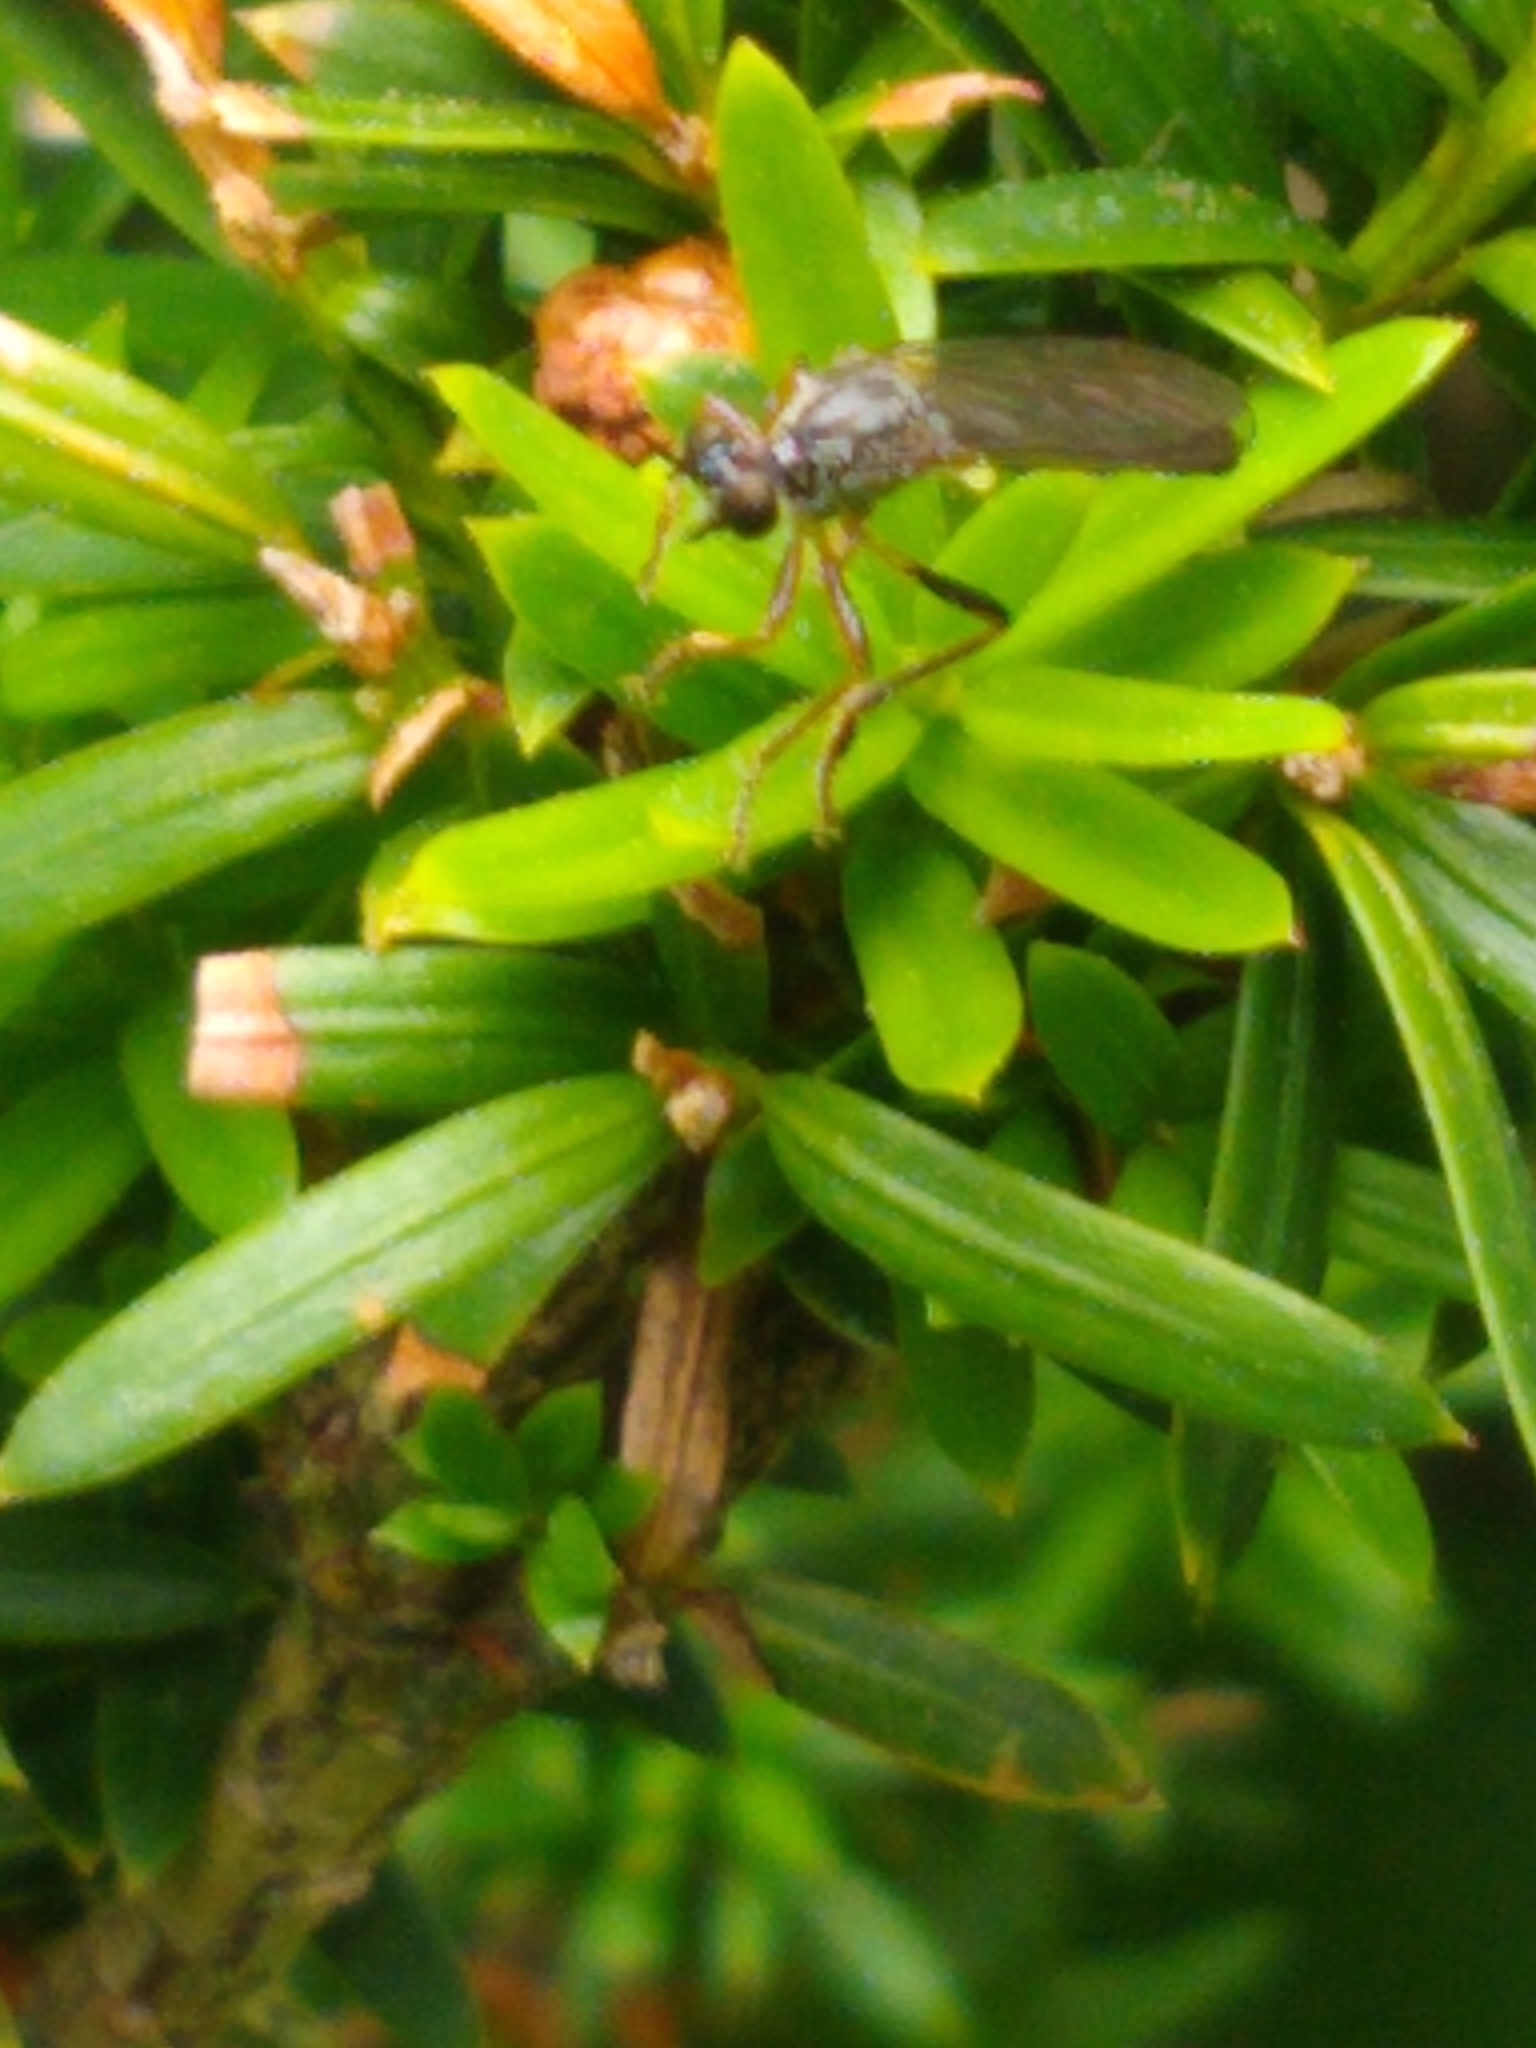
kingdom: Animalia
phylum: Arthropoda
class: Insecta
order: Diptera
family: Asilidae
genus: Dioctria
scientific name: Dioctria hyalipennis
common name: Stripe-legged robberfly
